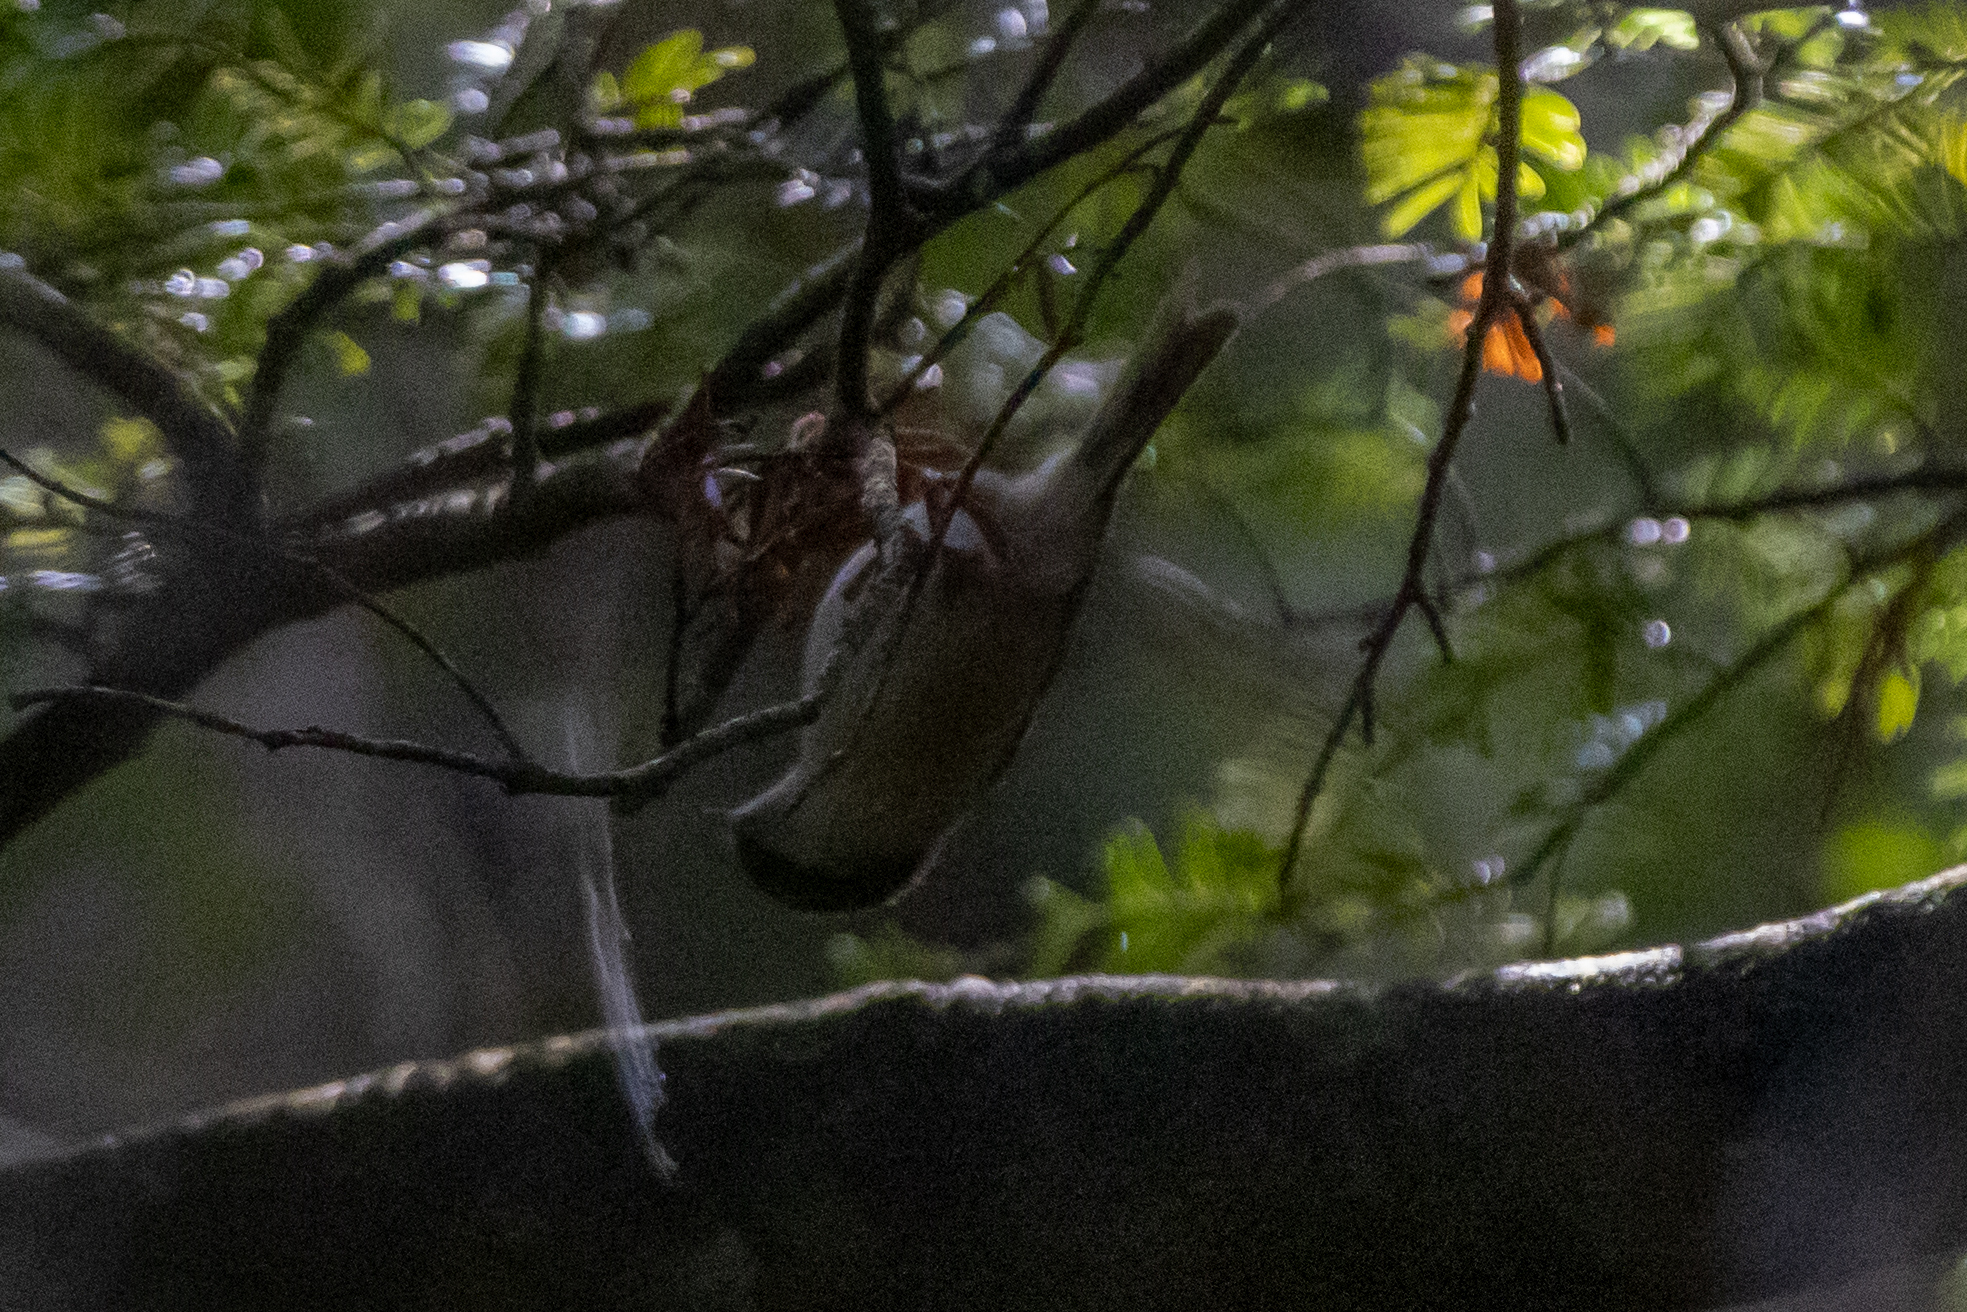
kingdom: Animalia
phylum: Chordata
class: Aves
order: Passeriformes
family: Acanthizidae
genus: Finschia
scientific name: Finschia novaeseelandiae
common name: Pipipi
